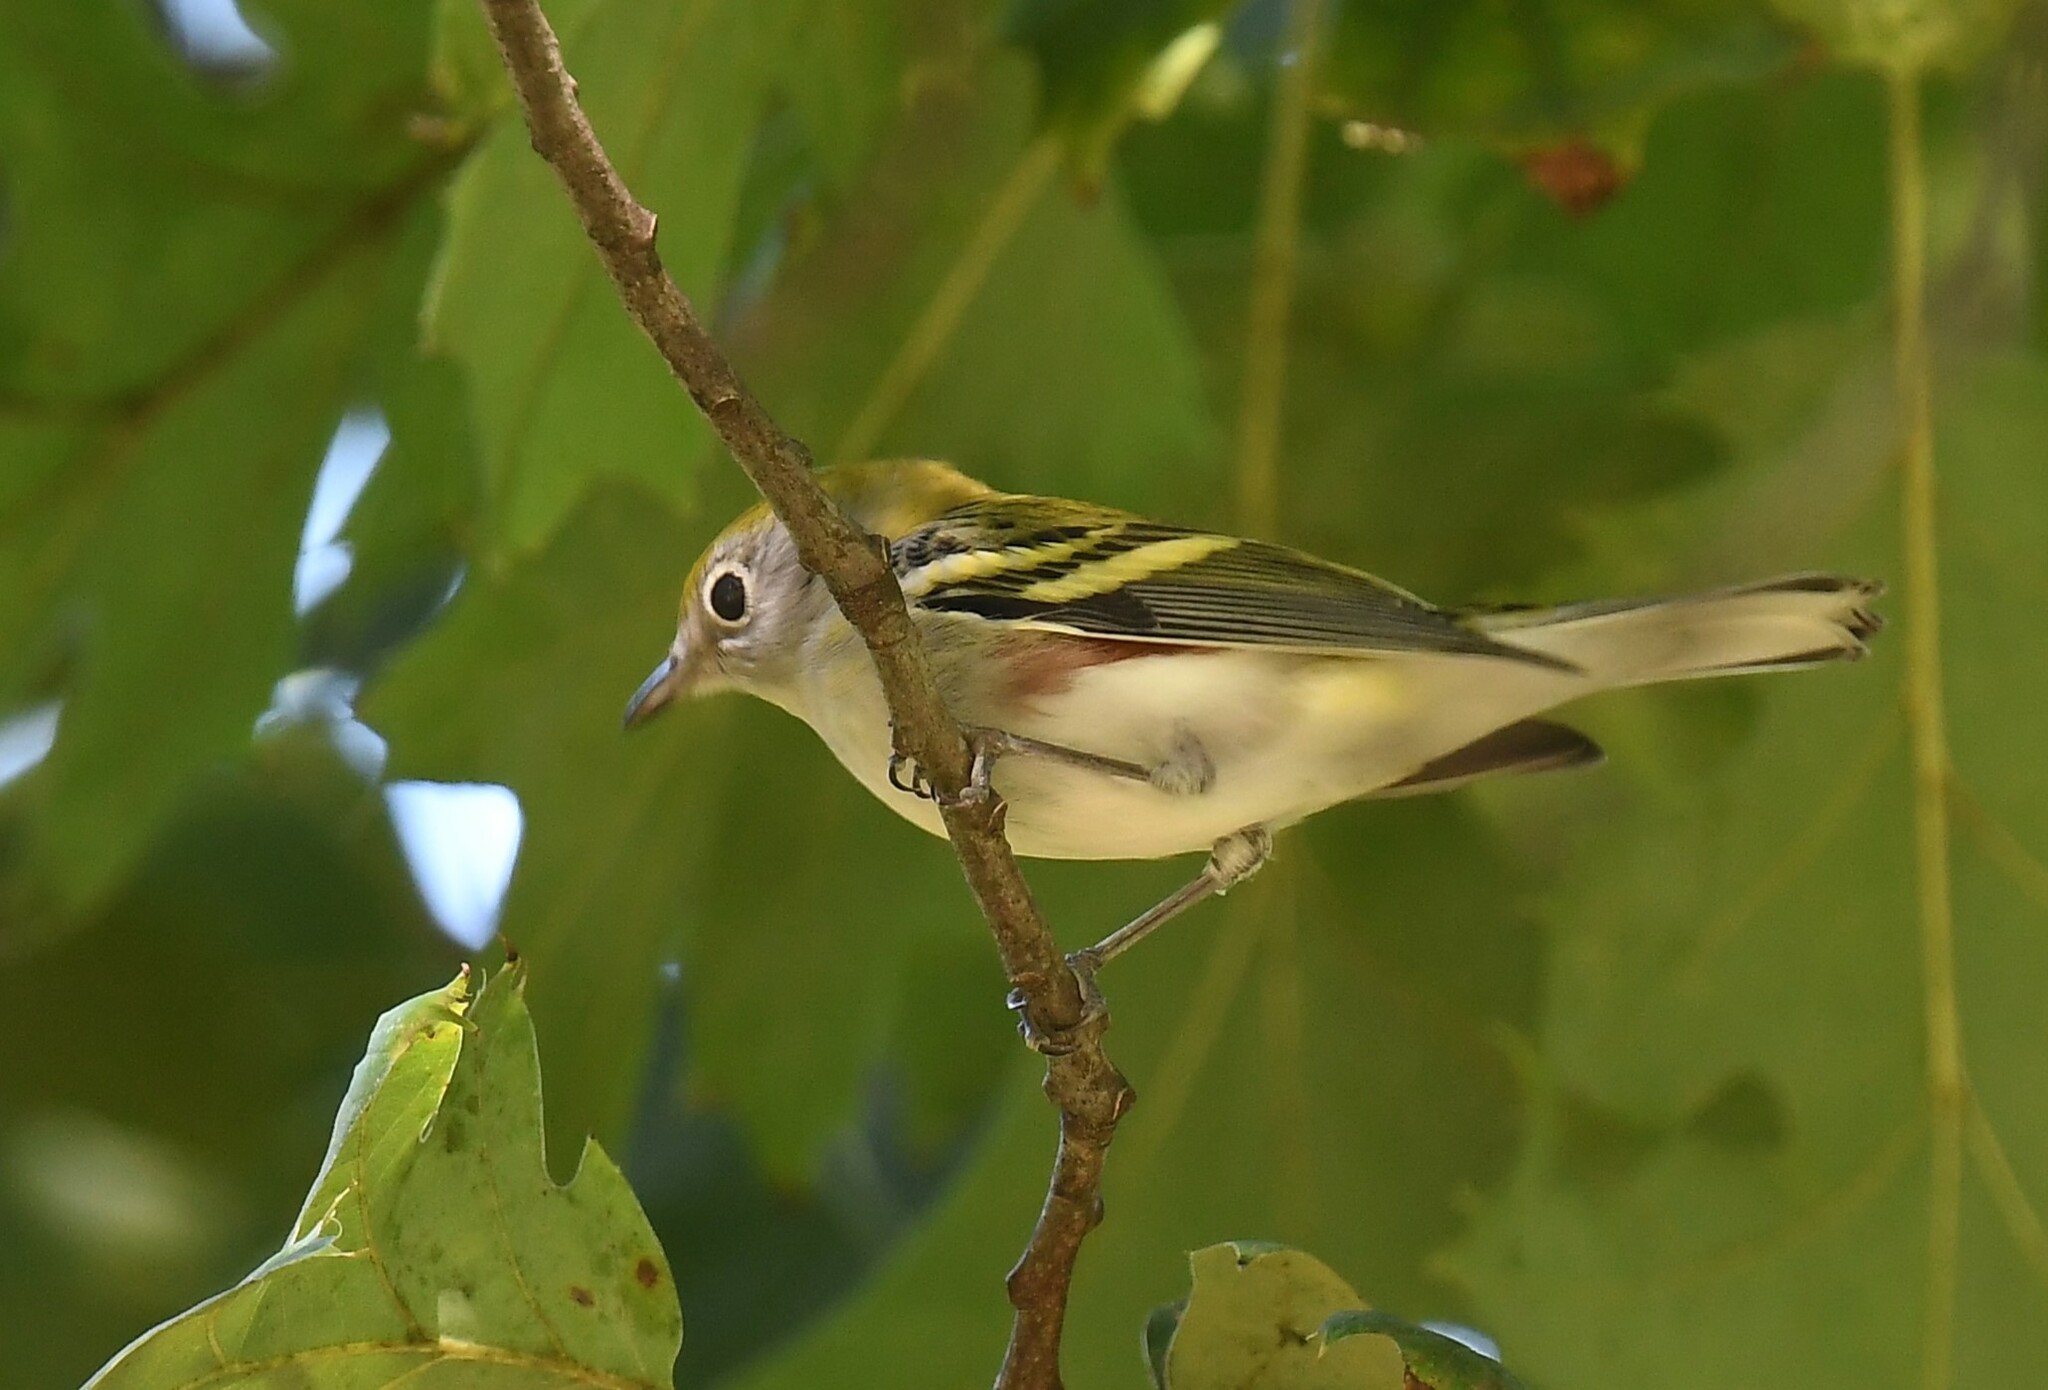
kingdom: Animalia
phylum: Chordata
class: Aves
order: Passeriformes
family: Parulidae
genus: Setophaga
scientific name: Setophaga pensylvanica
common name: Chestnut-sided warbler
